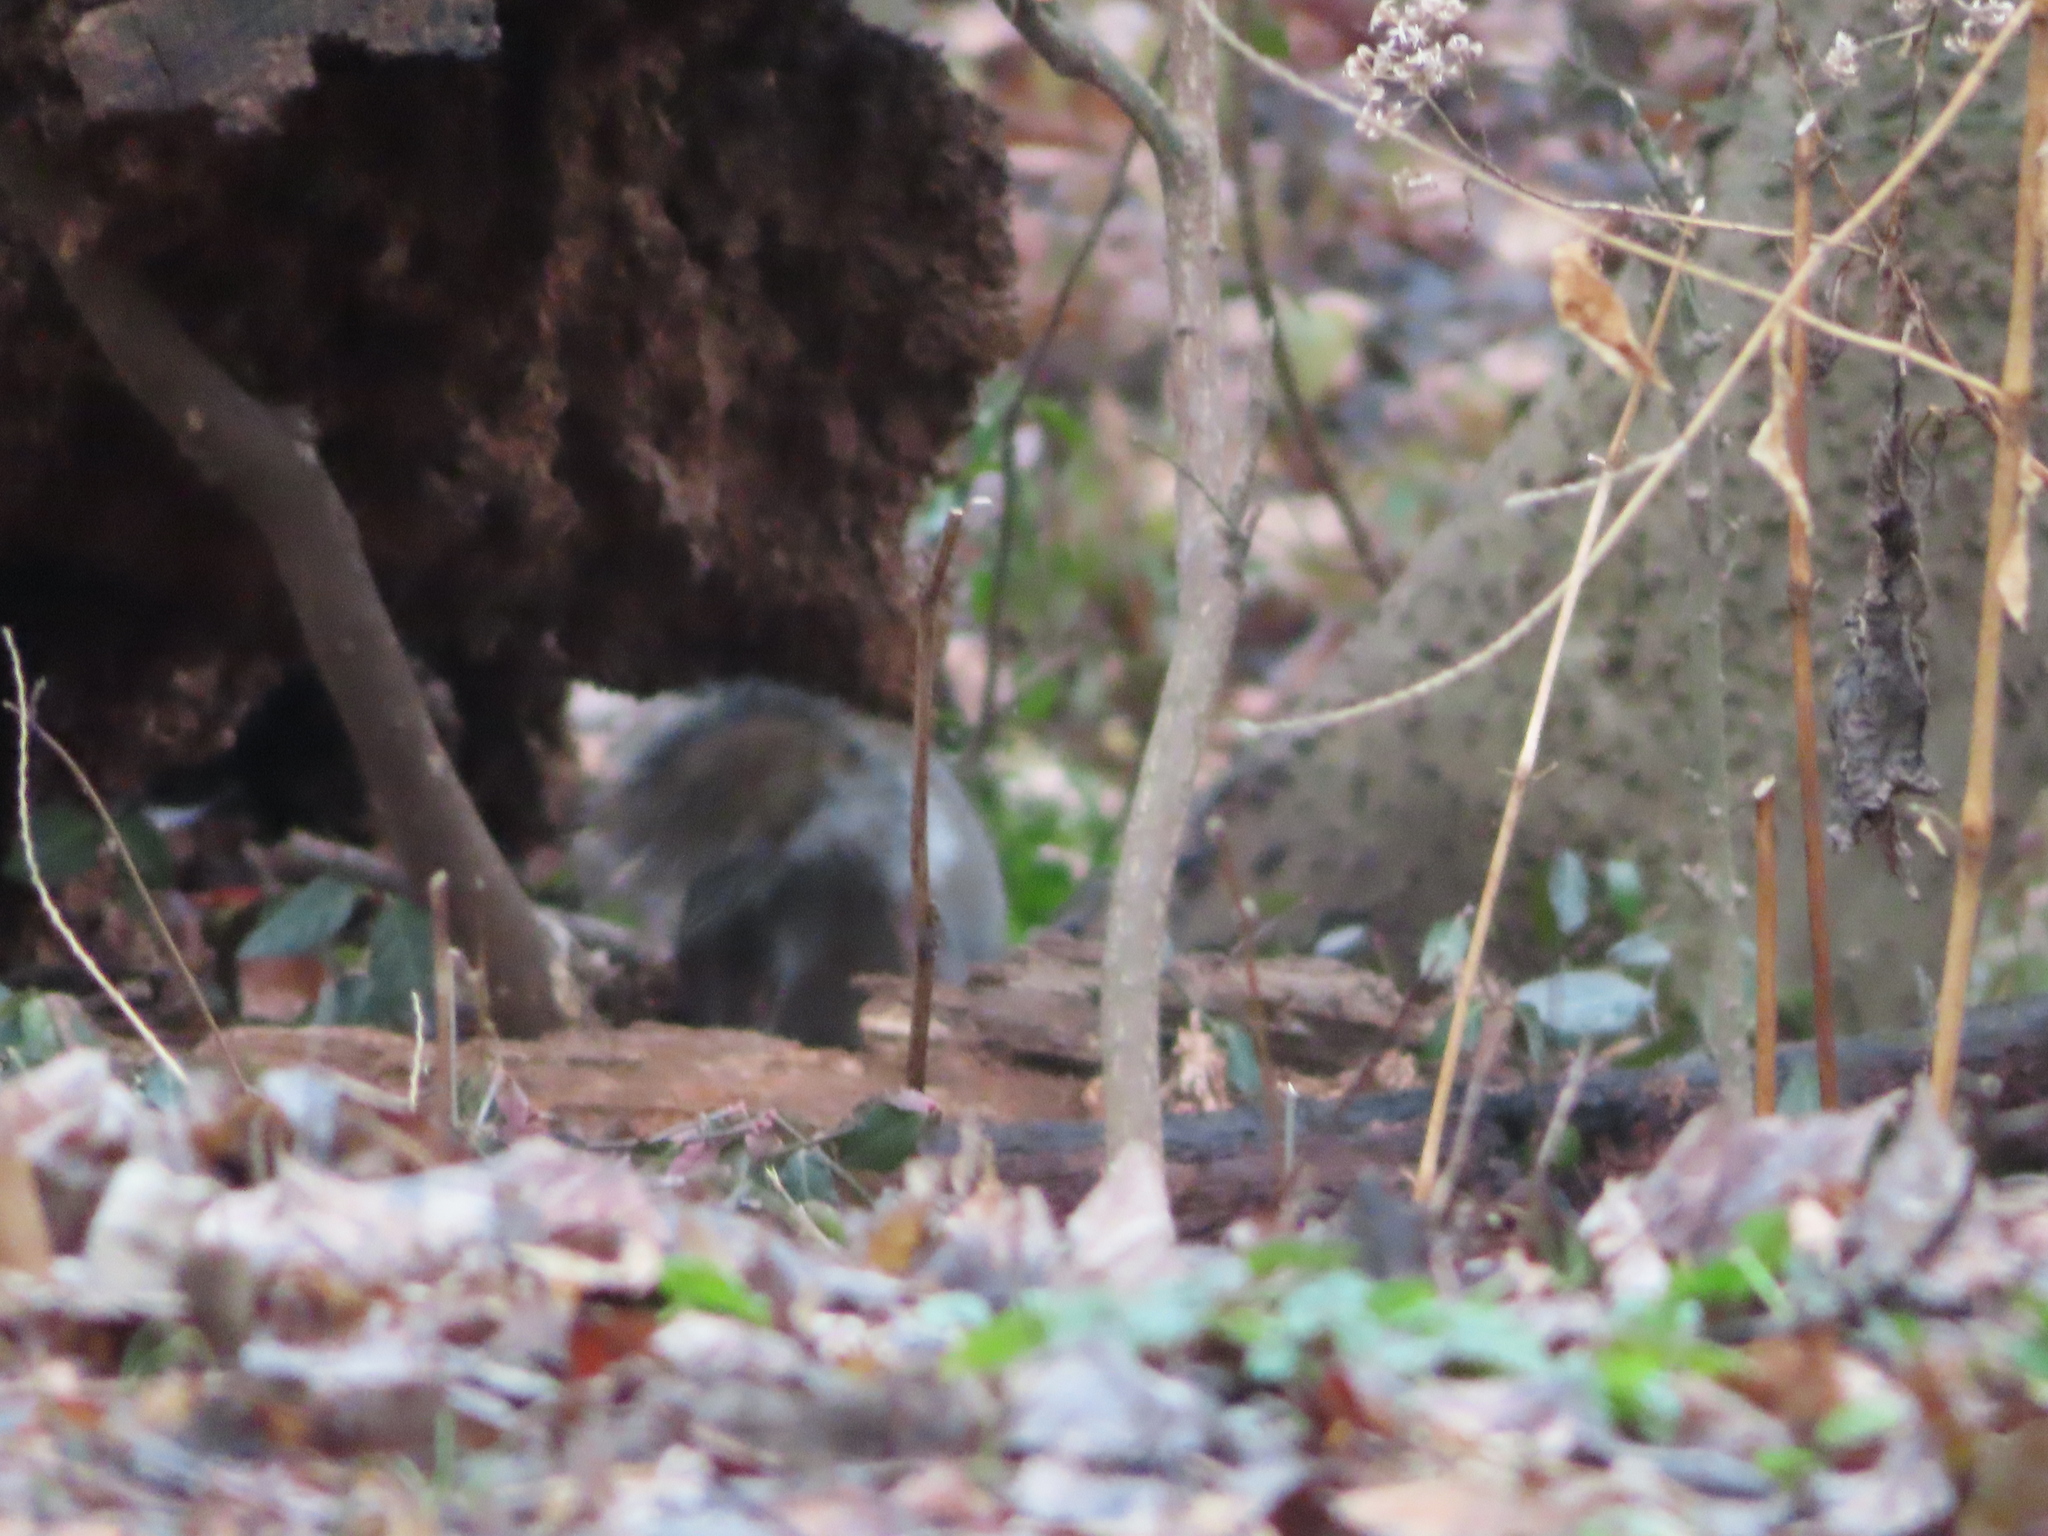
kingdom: Animalia
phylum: Chordata
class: Mammalia
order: Rodentia
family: Sciuridae
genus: Sciurus
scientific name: Sciurus carolinensis
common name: Eastern gray squirrel
